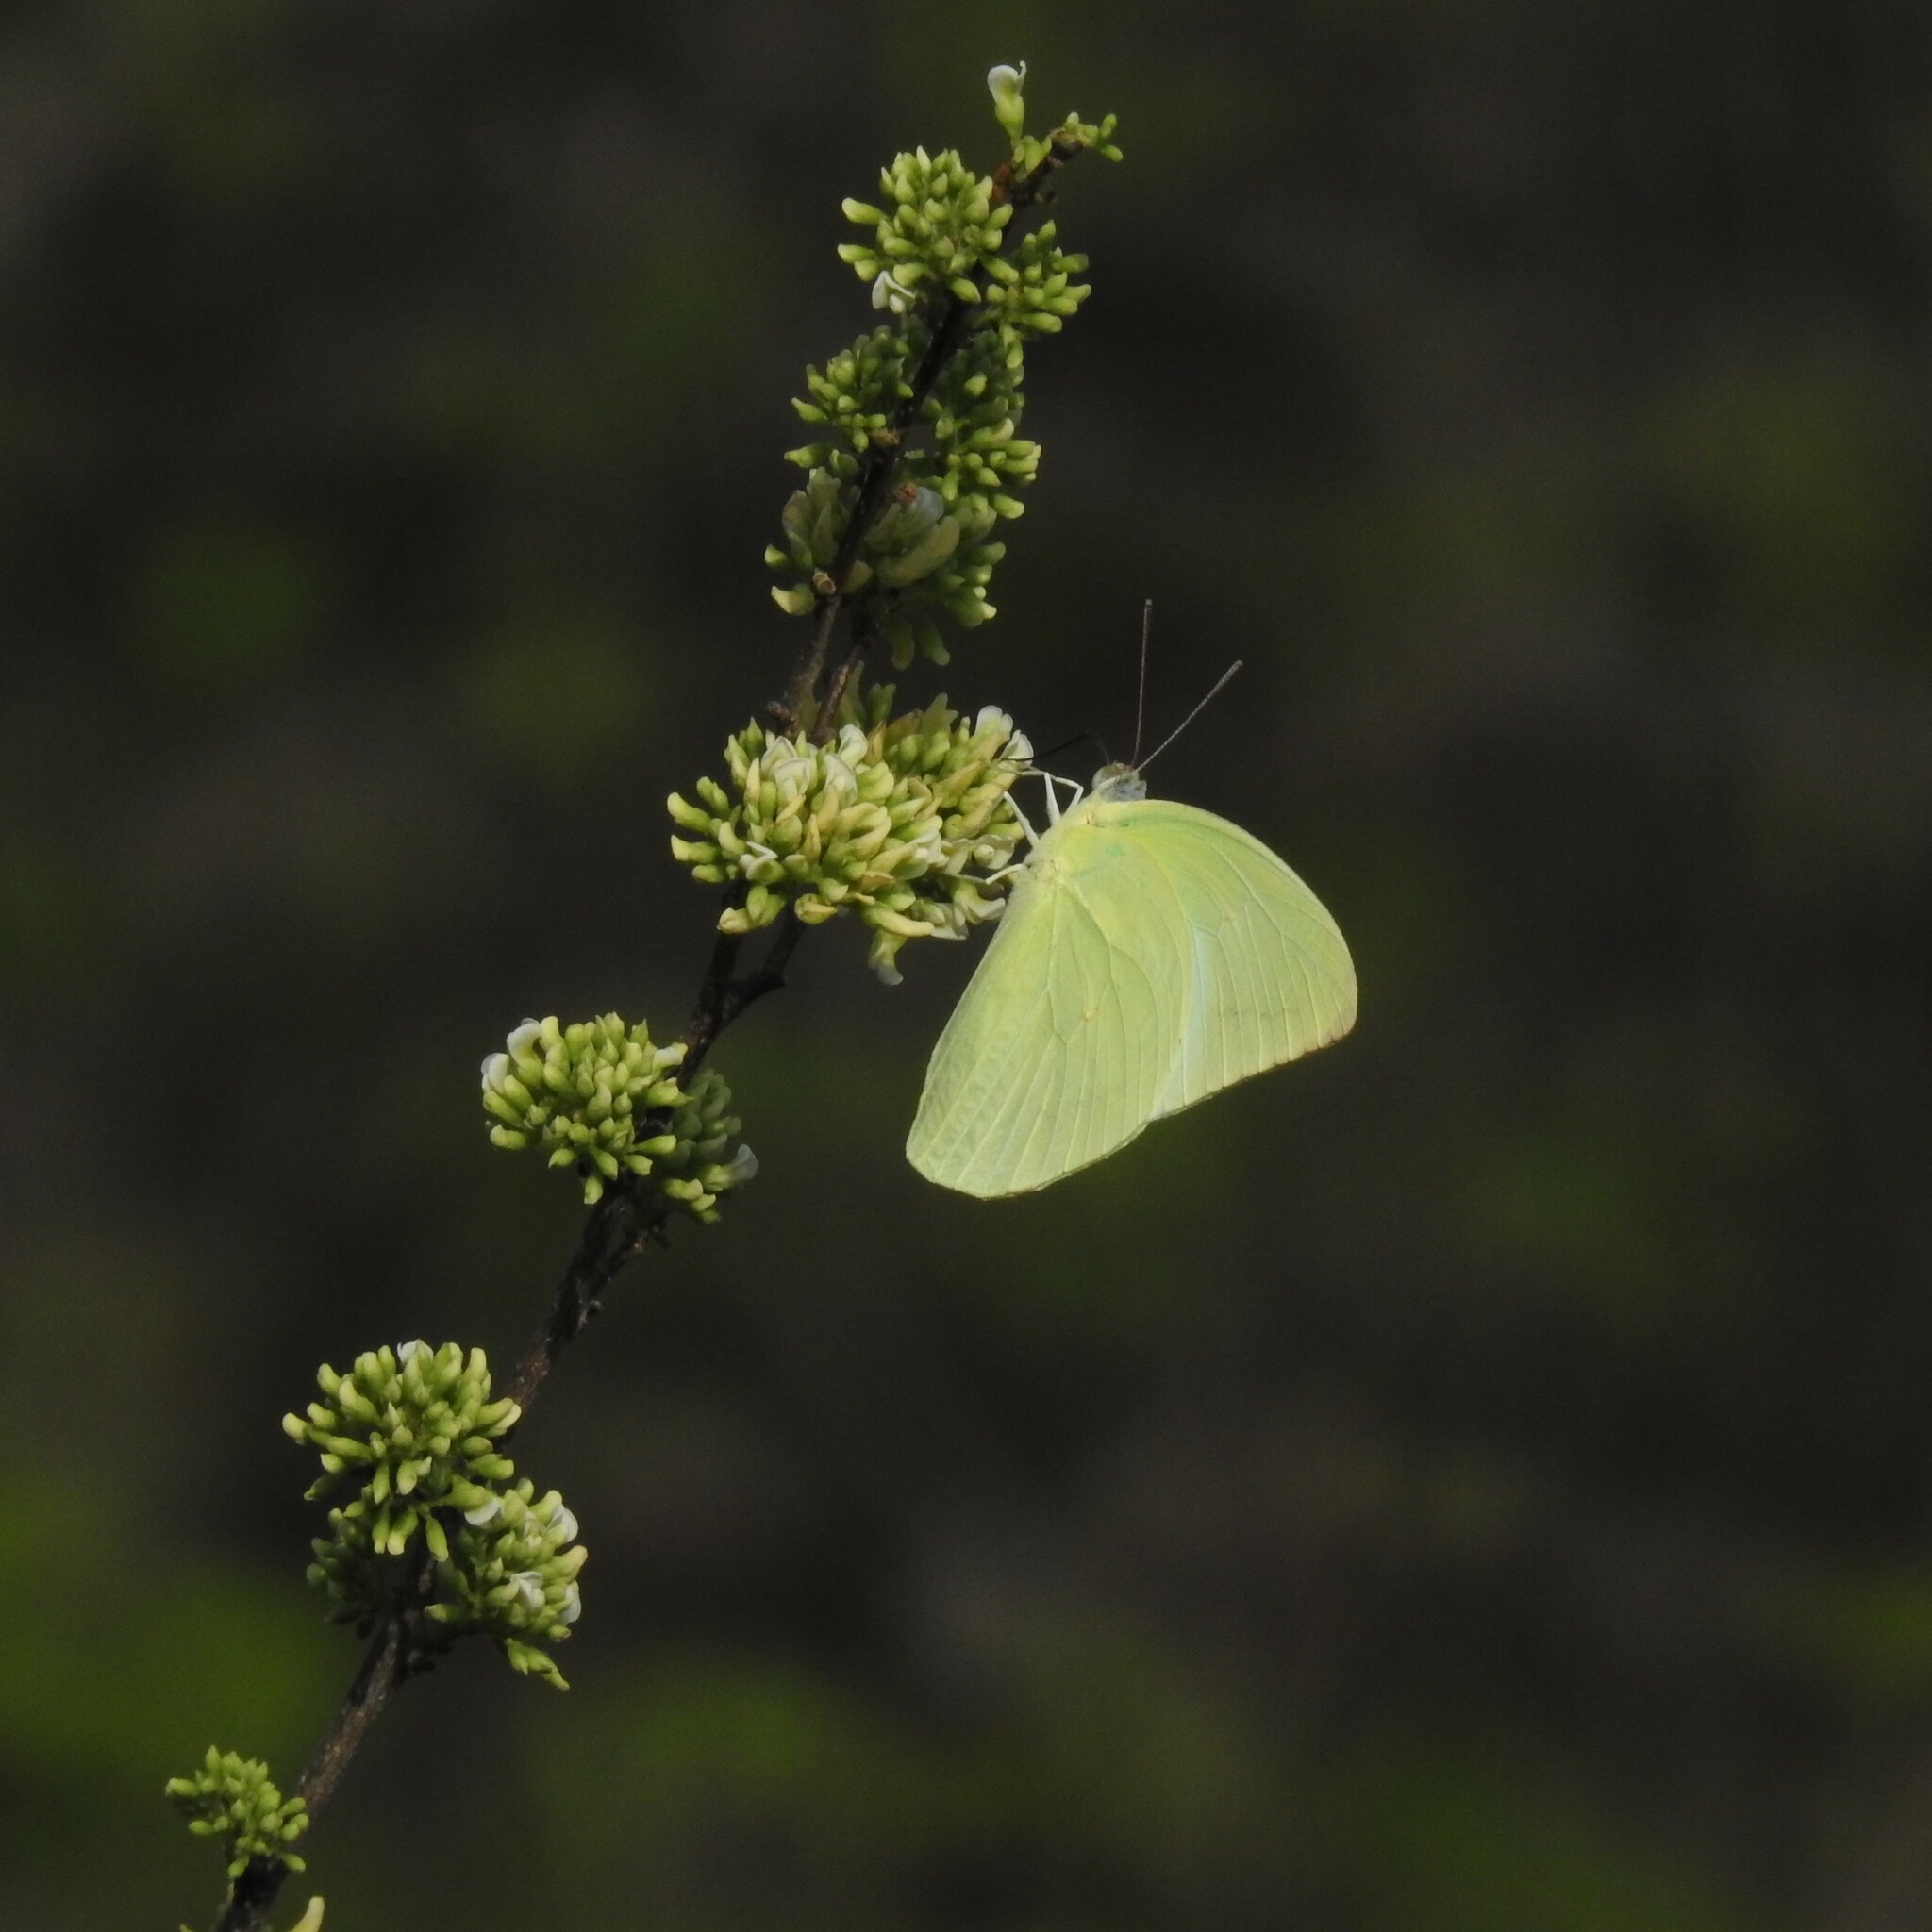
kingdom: Animalia
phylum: Arthropoda
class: Insecta
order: Lepidoptera
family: Pieridae
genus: Catopsilia
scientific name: Catopsilia pomona
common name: Common emigrant
